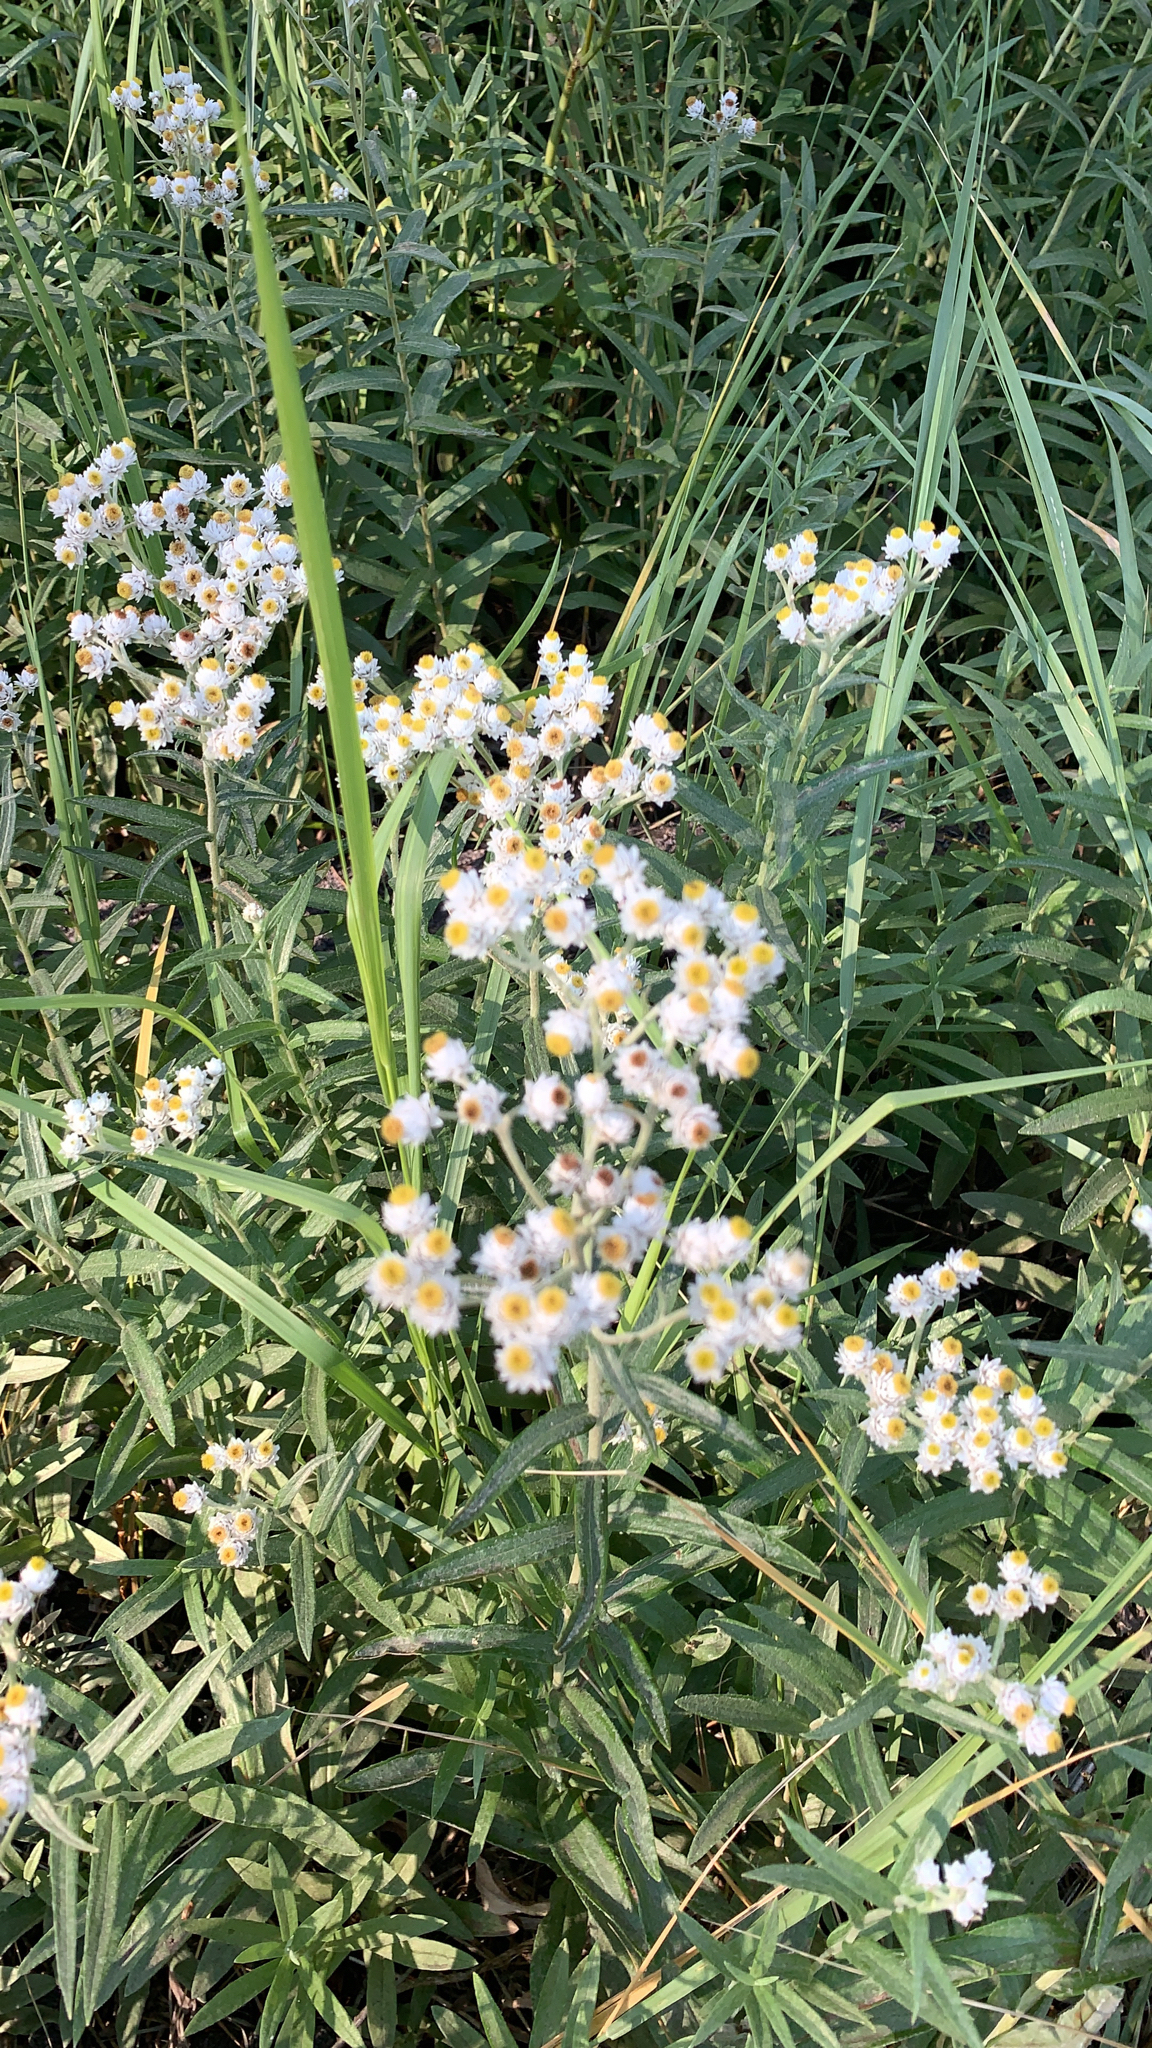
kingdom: Plantae
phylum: Tracheophyta
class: Magnoliopsida
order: Asterales
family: Asteraceae
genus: Anaphalis
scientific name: Anaphalis margaritacea
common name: Pearly everlasting
